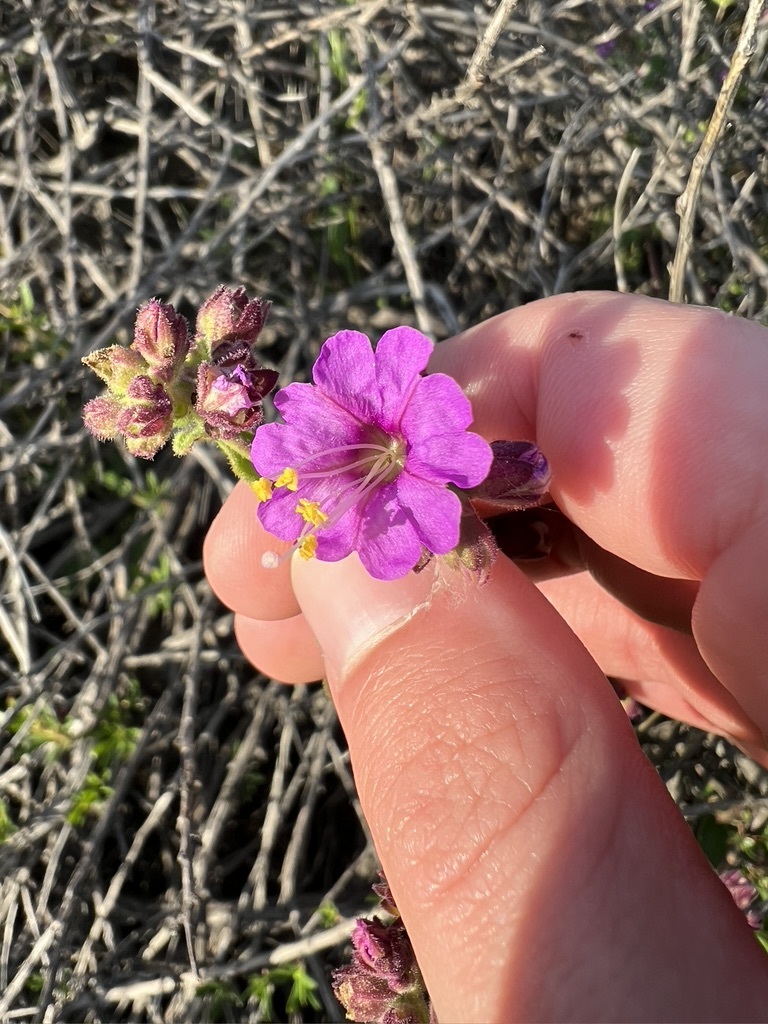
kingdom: Plantae
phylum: Tracheophyta
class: Magnoliopsida
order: Caryophyllales
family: Nyctaginaceae
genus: Mirabilis
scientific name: Mirabilis laevis
